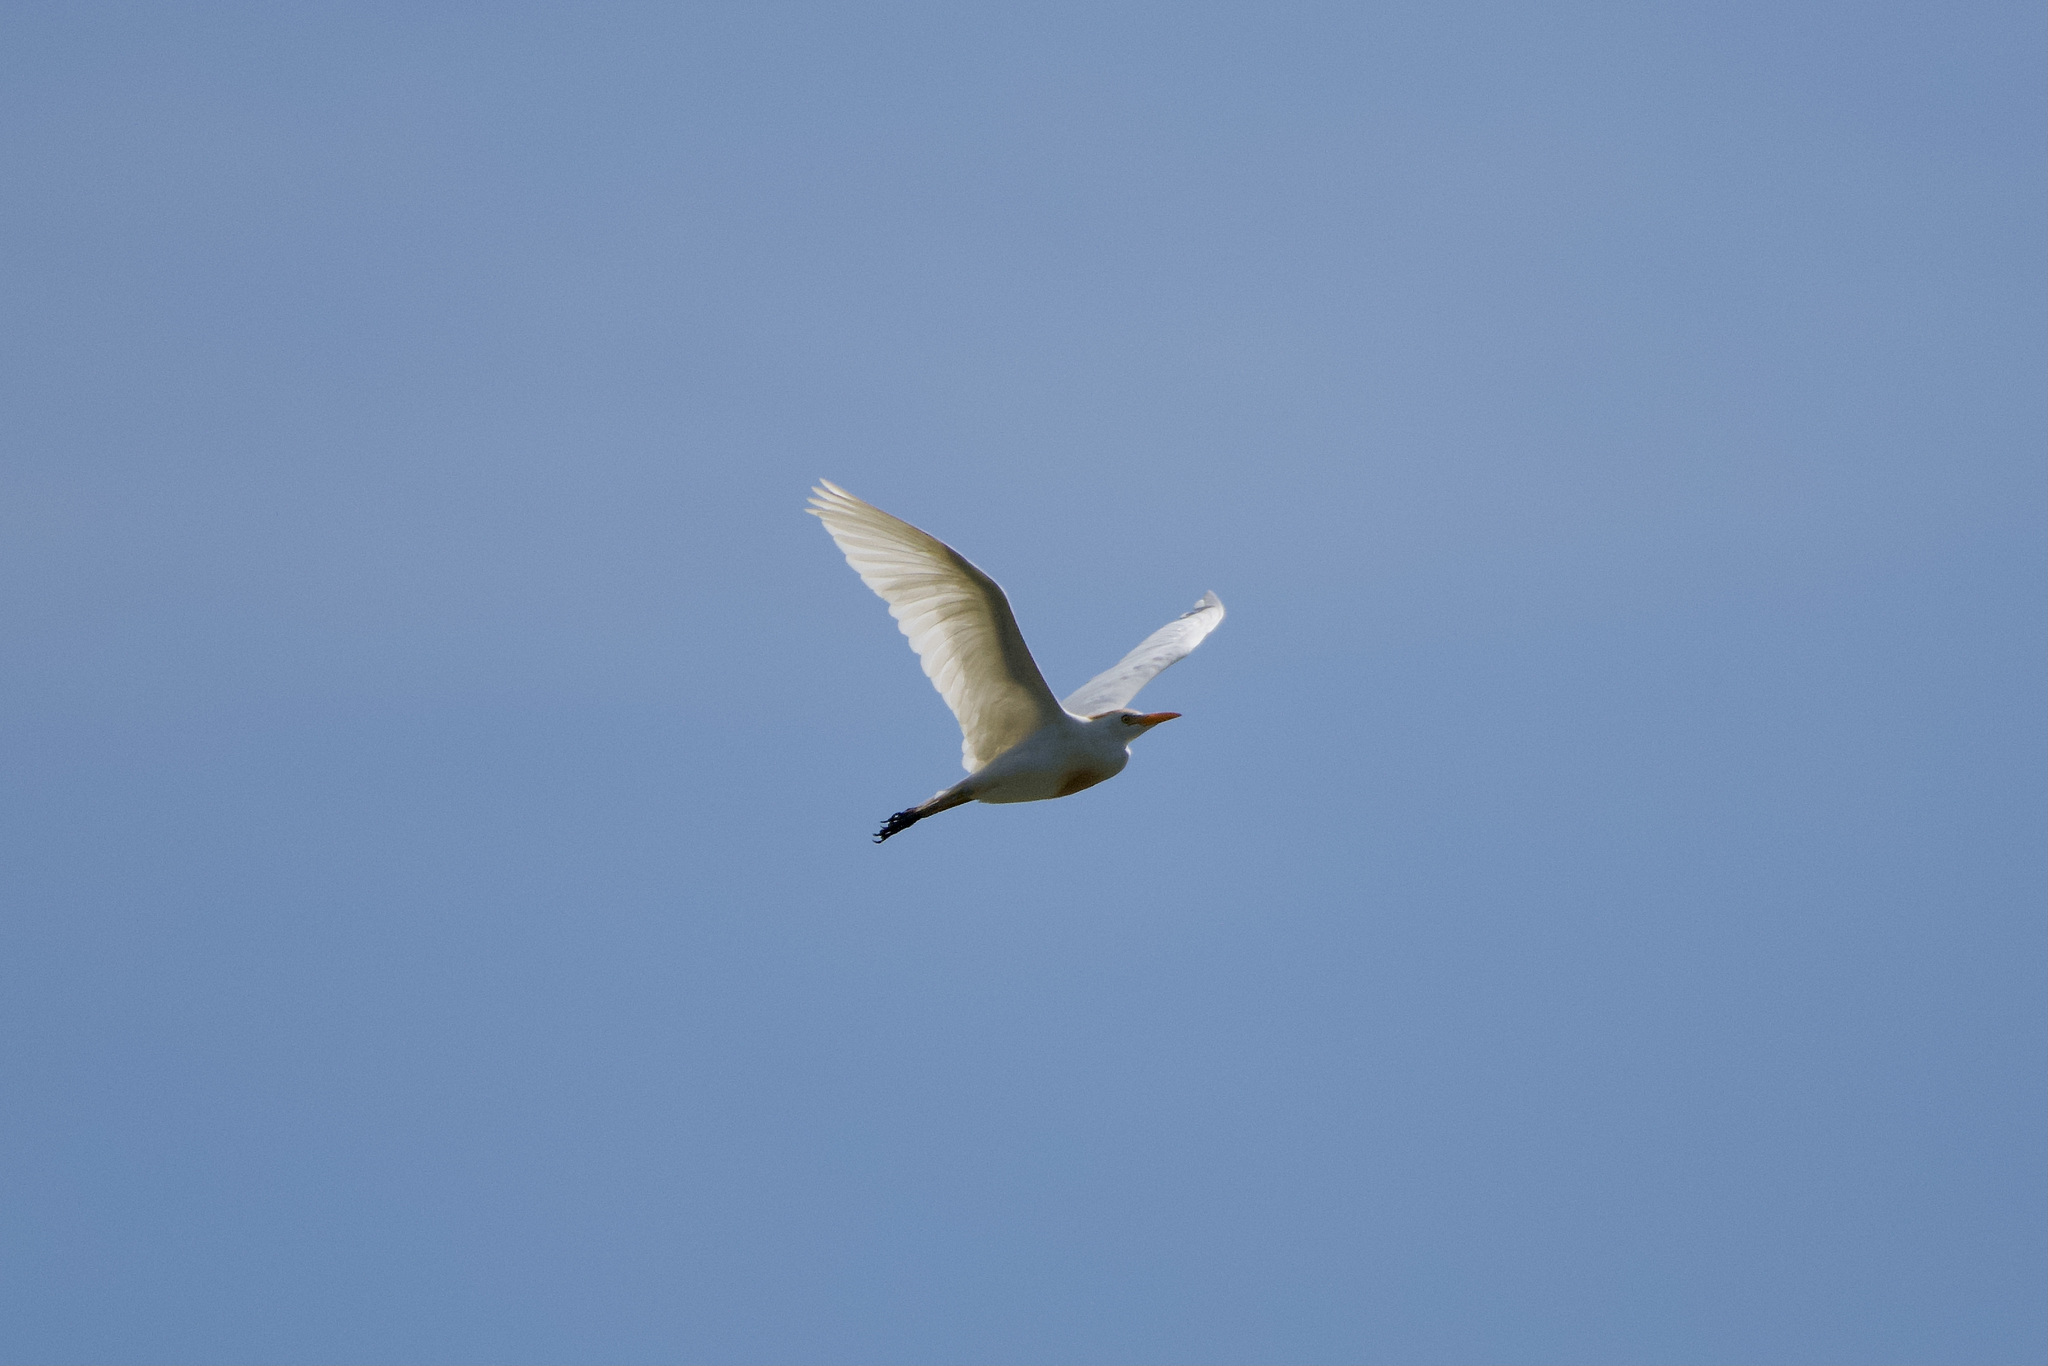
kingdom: Animalia
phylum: Chordata
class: Aves
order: Pelecaniformes
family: Ardeidae
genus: Bubulcus
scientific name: Bubulcus ibis
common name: Cattle egret
